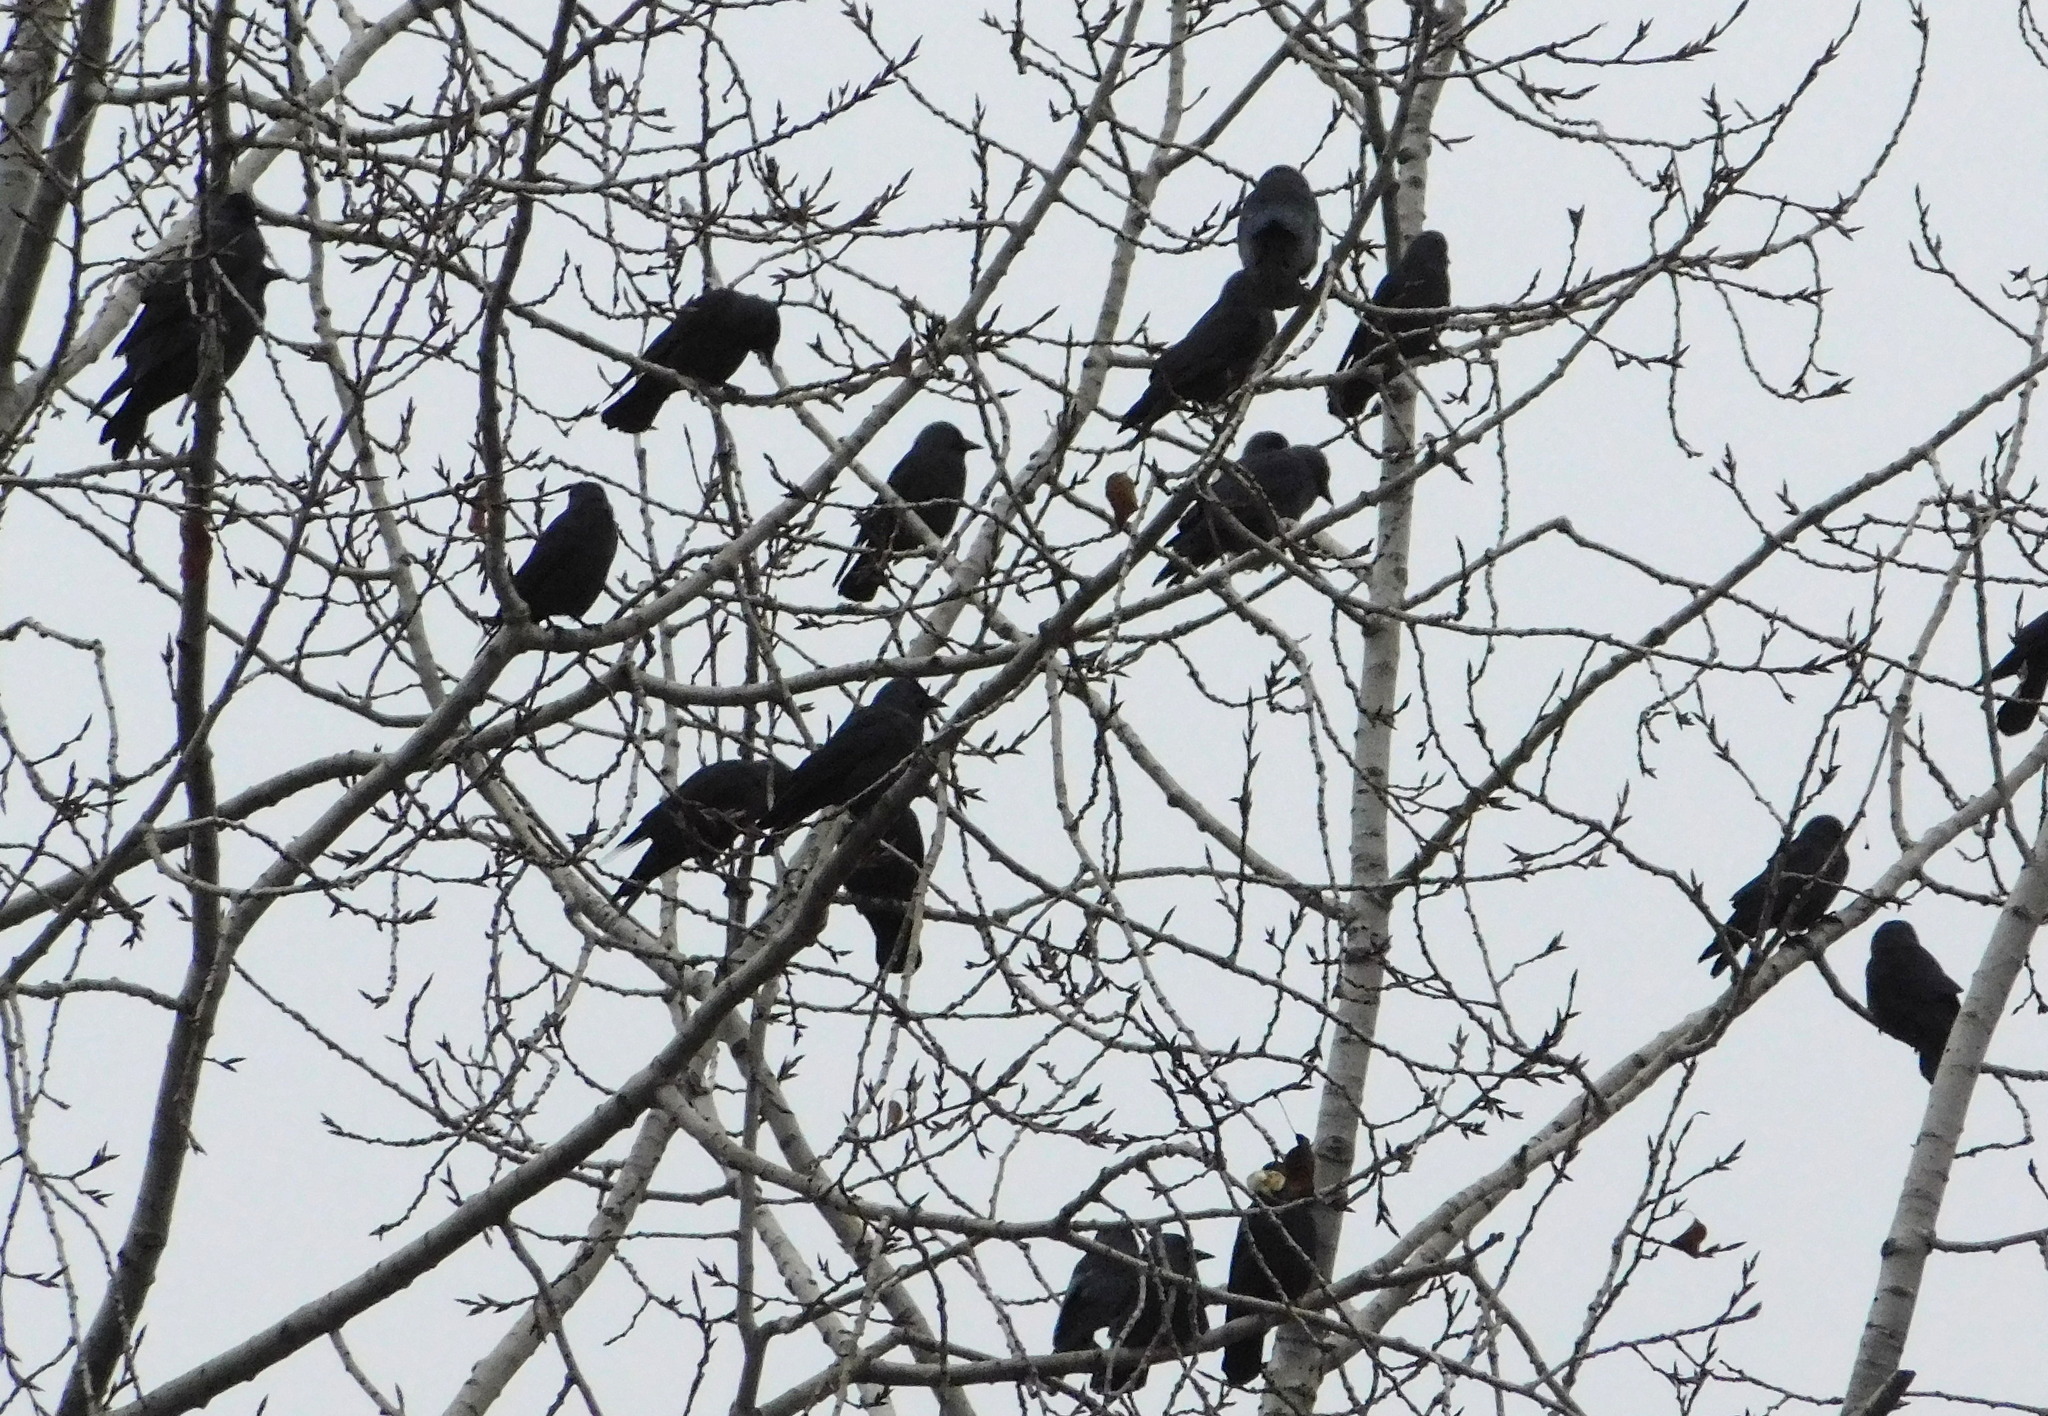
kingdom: Animalia
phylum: Chordata
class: Aves
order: Passeriformes
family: Corvidae
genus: Coloeus
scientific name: Coloeus monedula
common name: Western jackdaw
